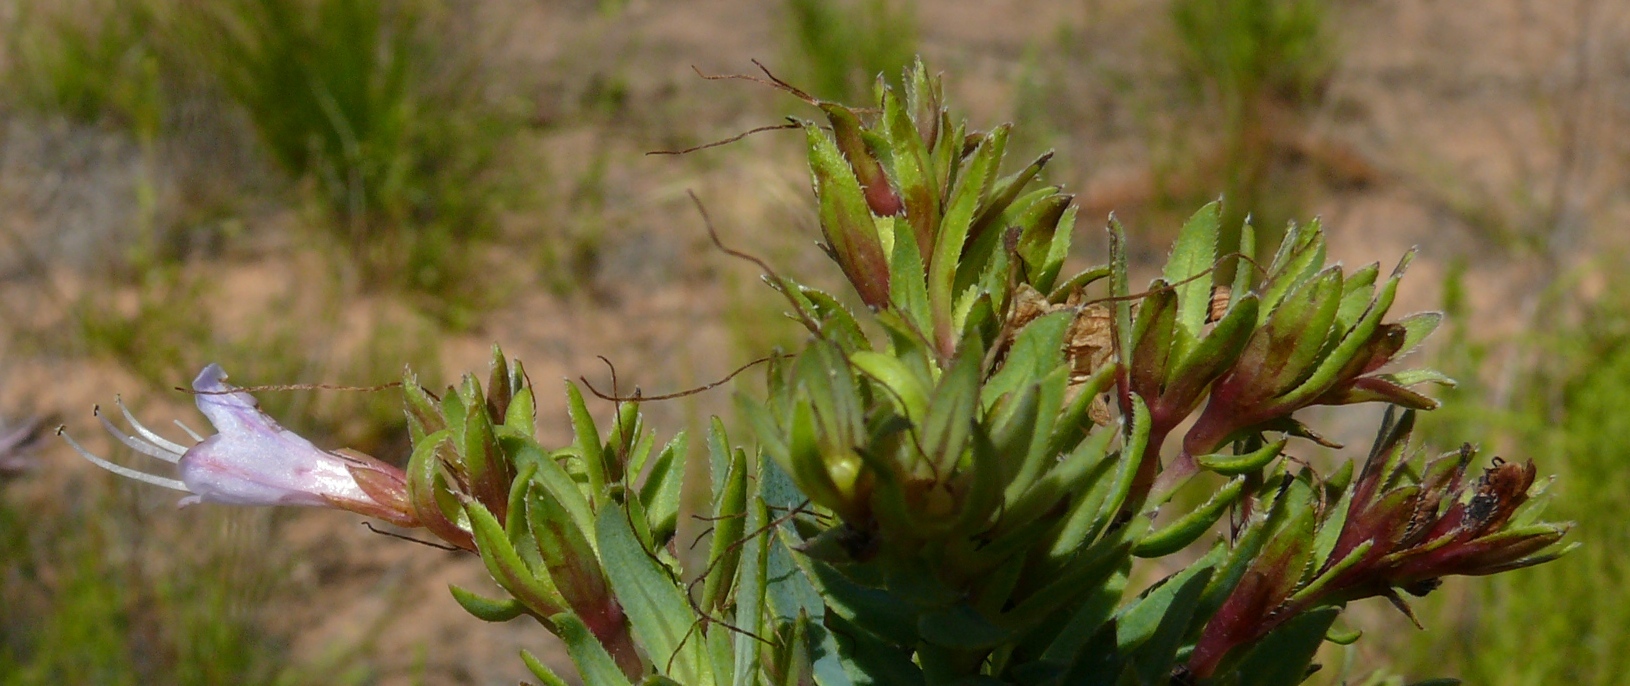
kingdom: Plantae
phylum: Tracheophyta
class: Magnoliopsida
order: Boraginales
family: Boraginaceae
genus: Lobostemon
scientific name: Lobostemon laevigatus
